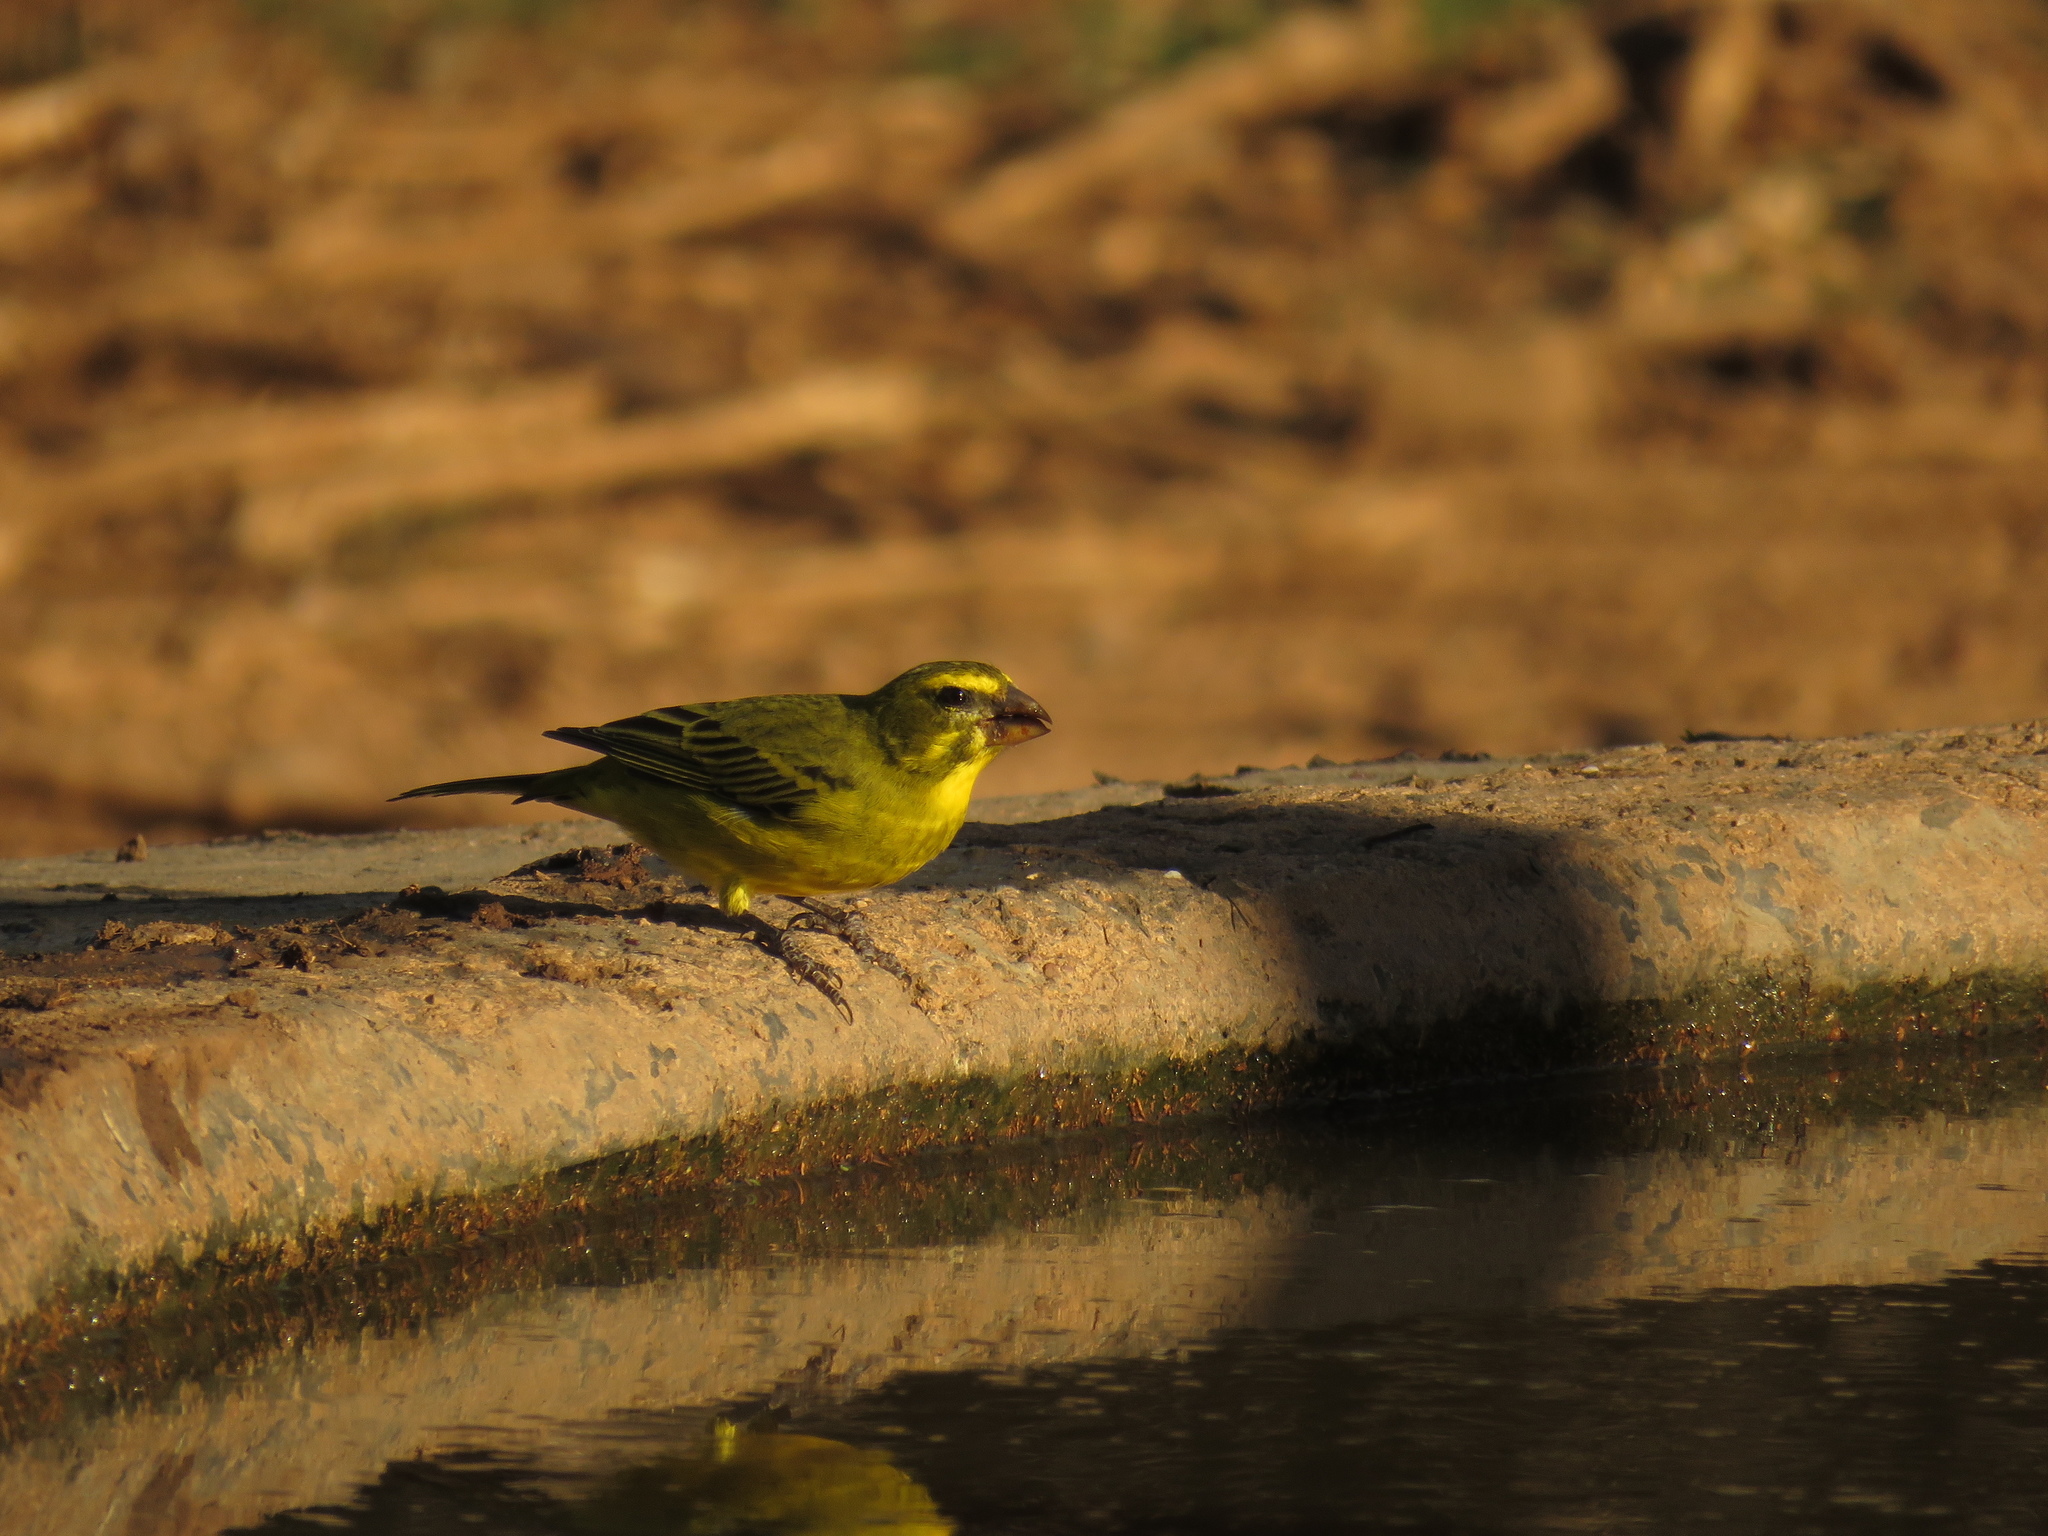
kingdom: Animalia
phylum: Chordata
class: Aves
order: Passeriformes
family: Fringillidae
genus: Crithagra
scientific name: Crithagra sulphurata
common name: Brimstone canary
